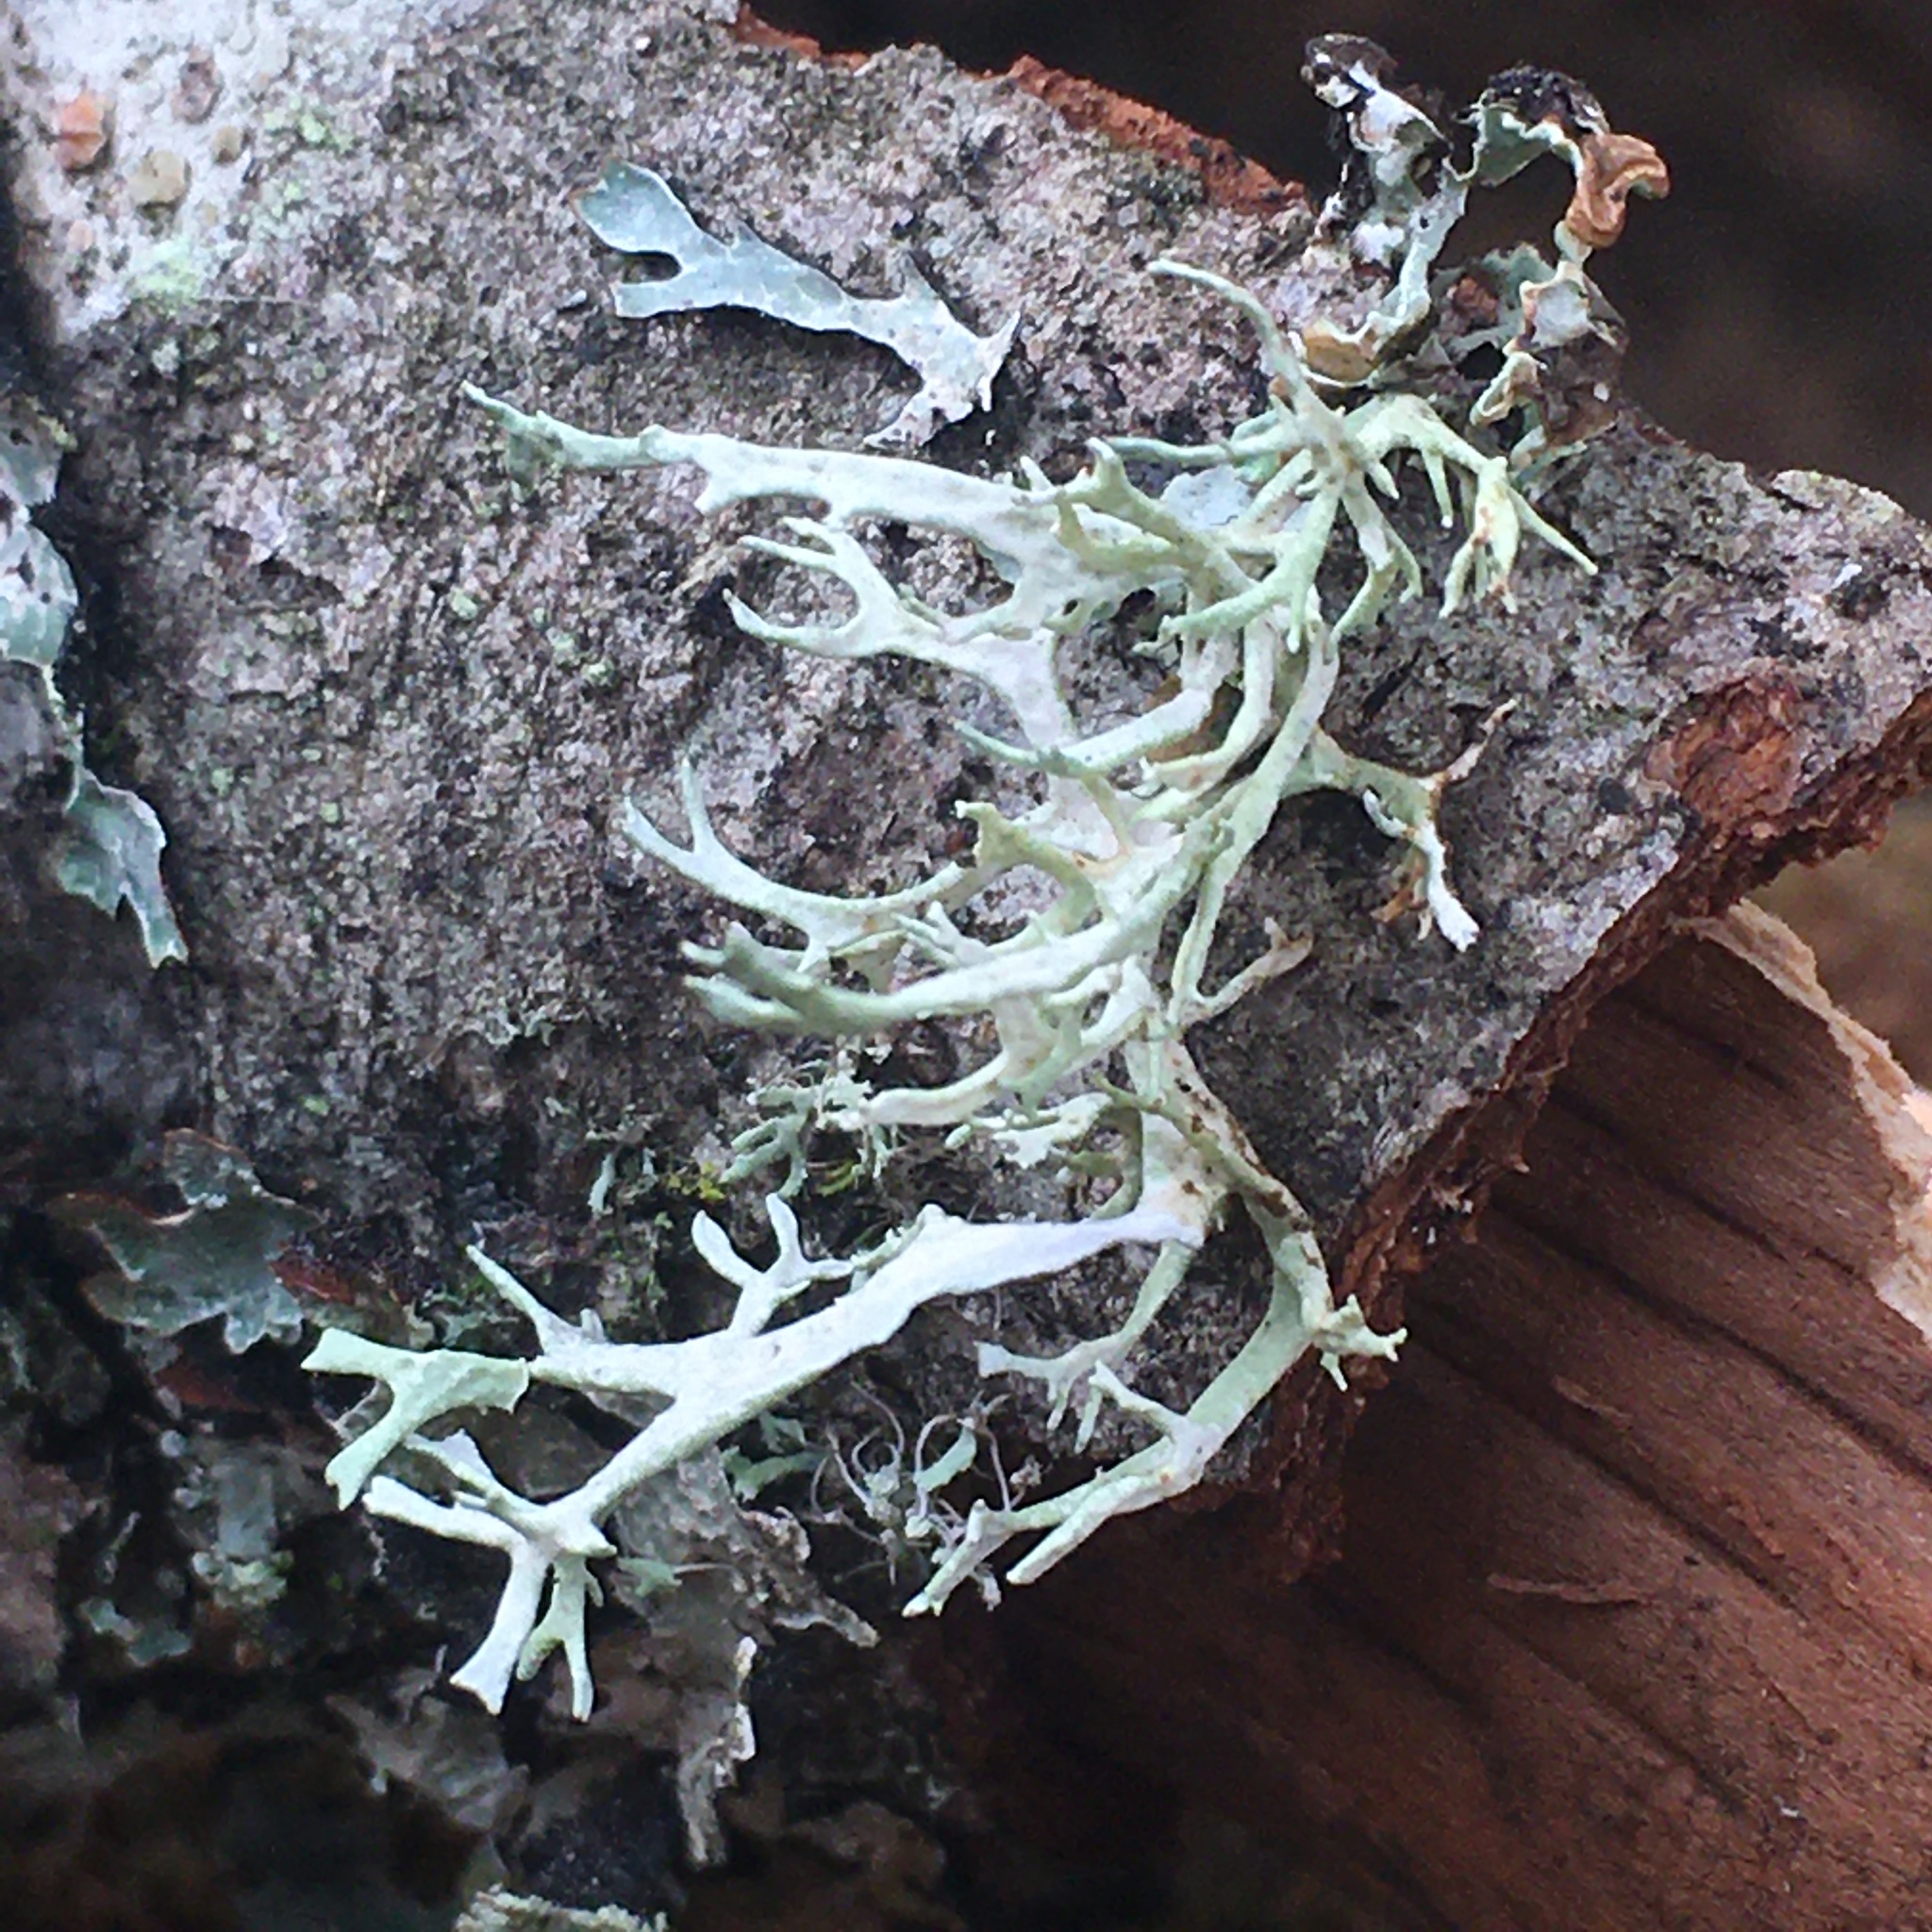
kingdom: Fungi
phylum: Ascomycota
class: Lecanoromycetes
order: Lecanorales
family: Parmeliaceae
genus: Evernia
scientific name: Evernia prunastri
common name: Oak moss
